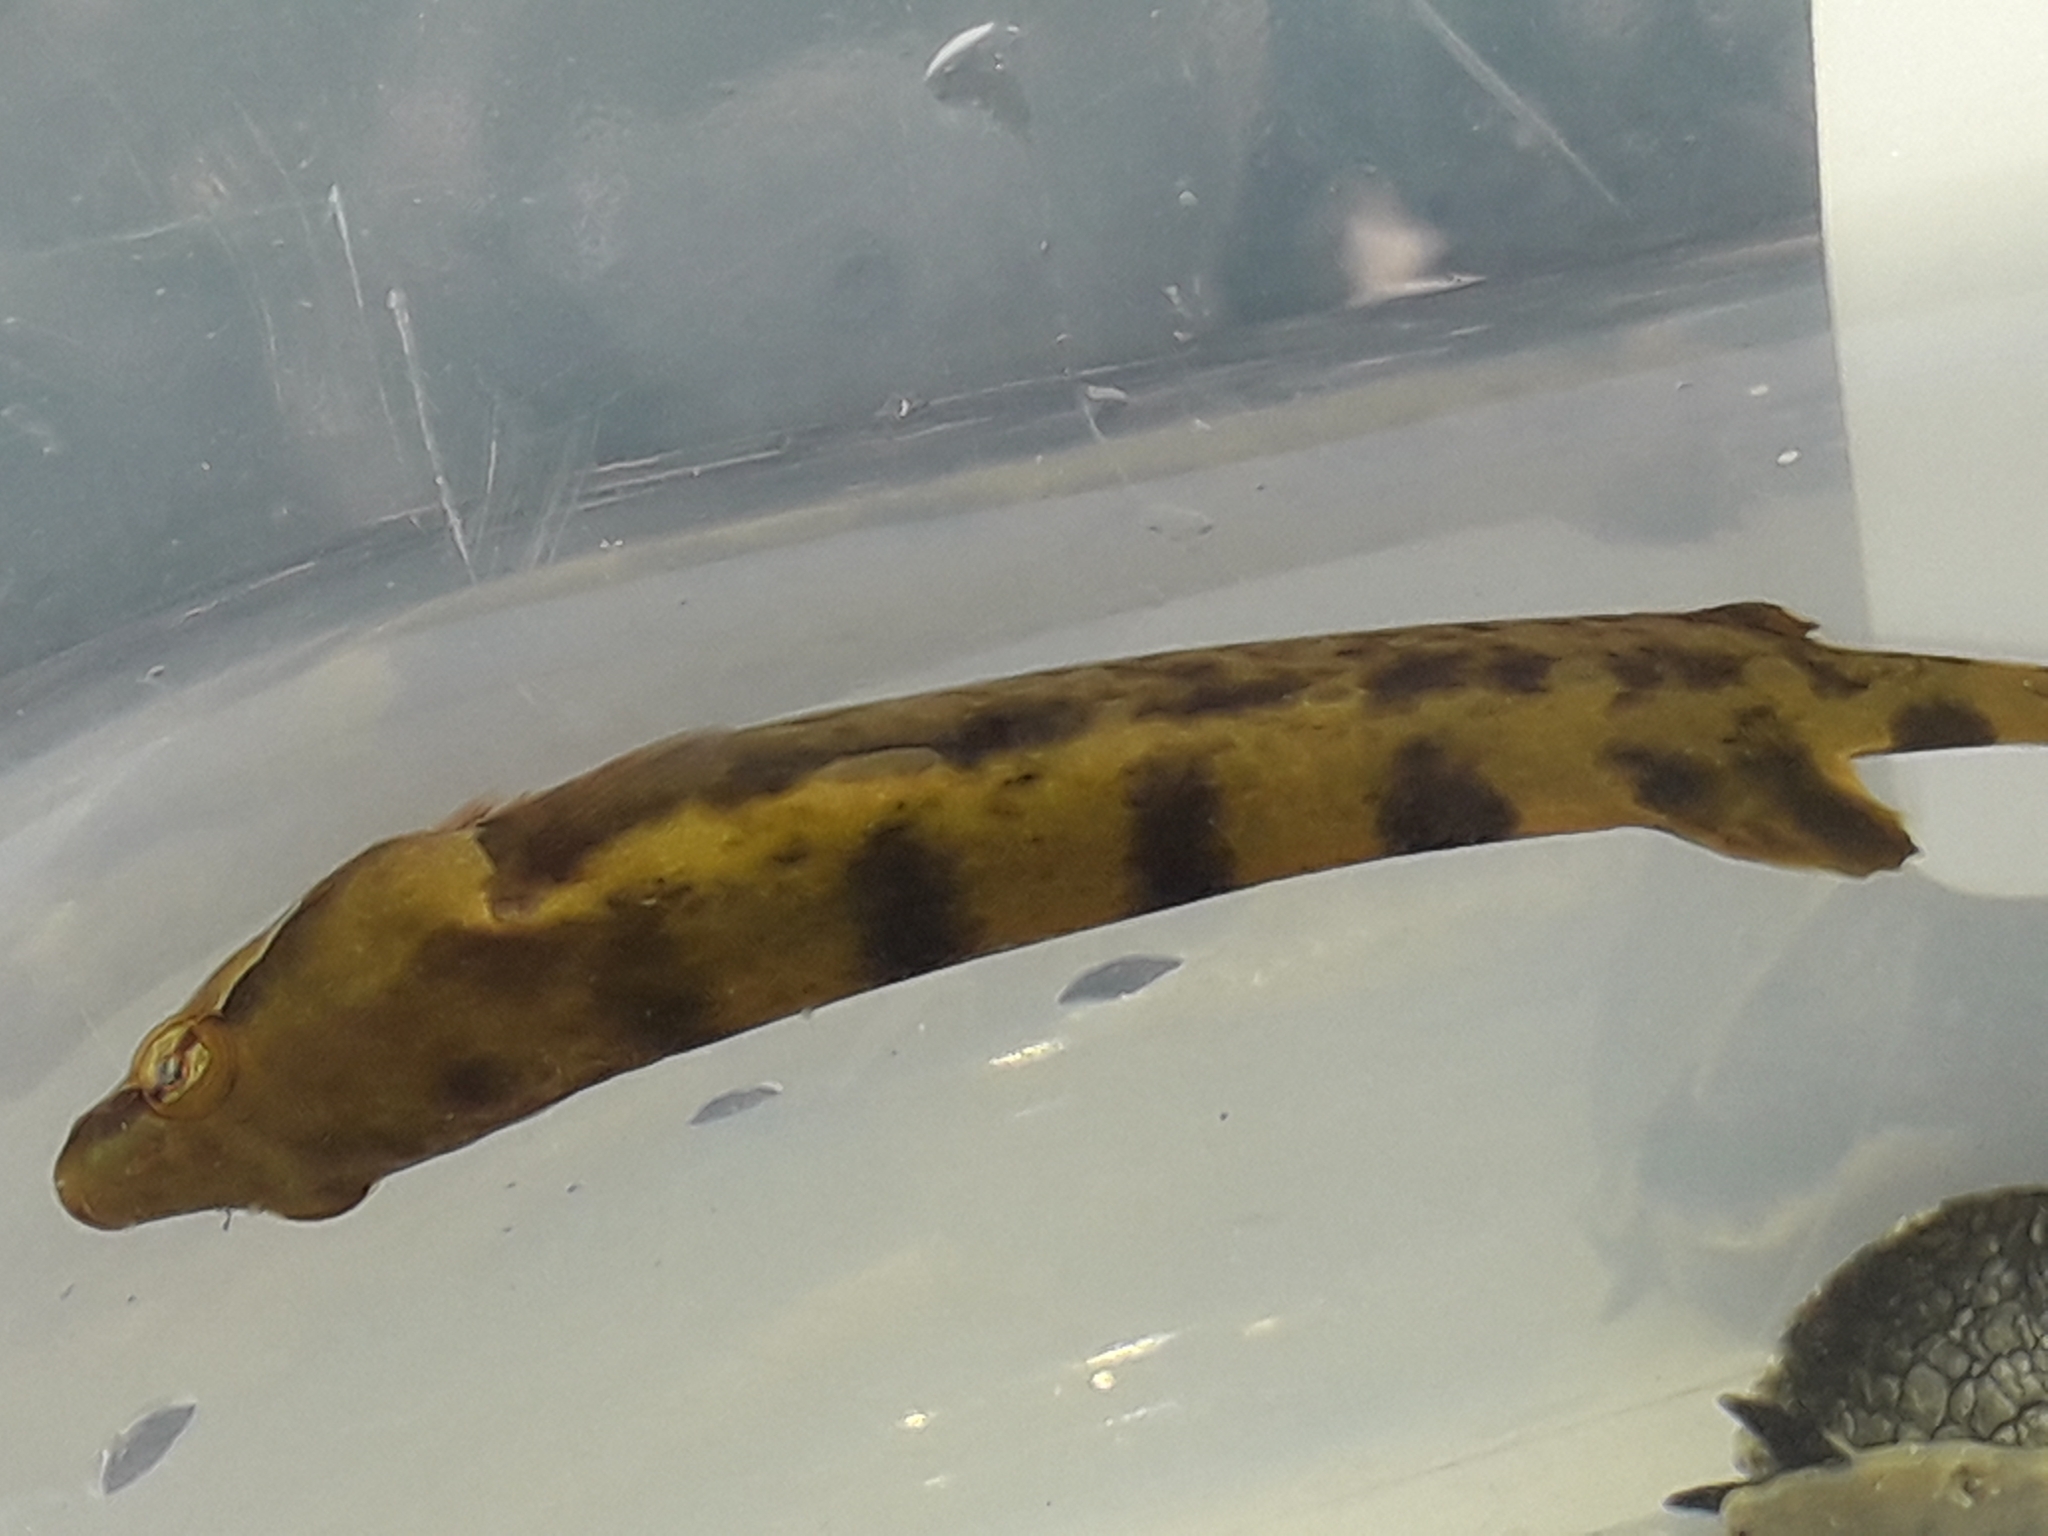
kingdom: Animalia
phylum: Chordata
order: Gobiesociformes
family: Gobiesocidae
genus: Gastroscyphus
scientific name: Gastroscyphus hectoris
